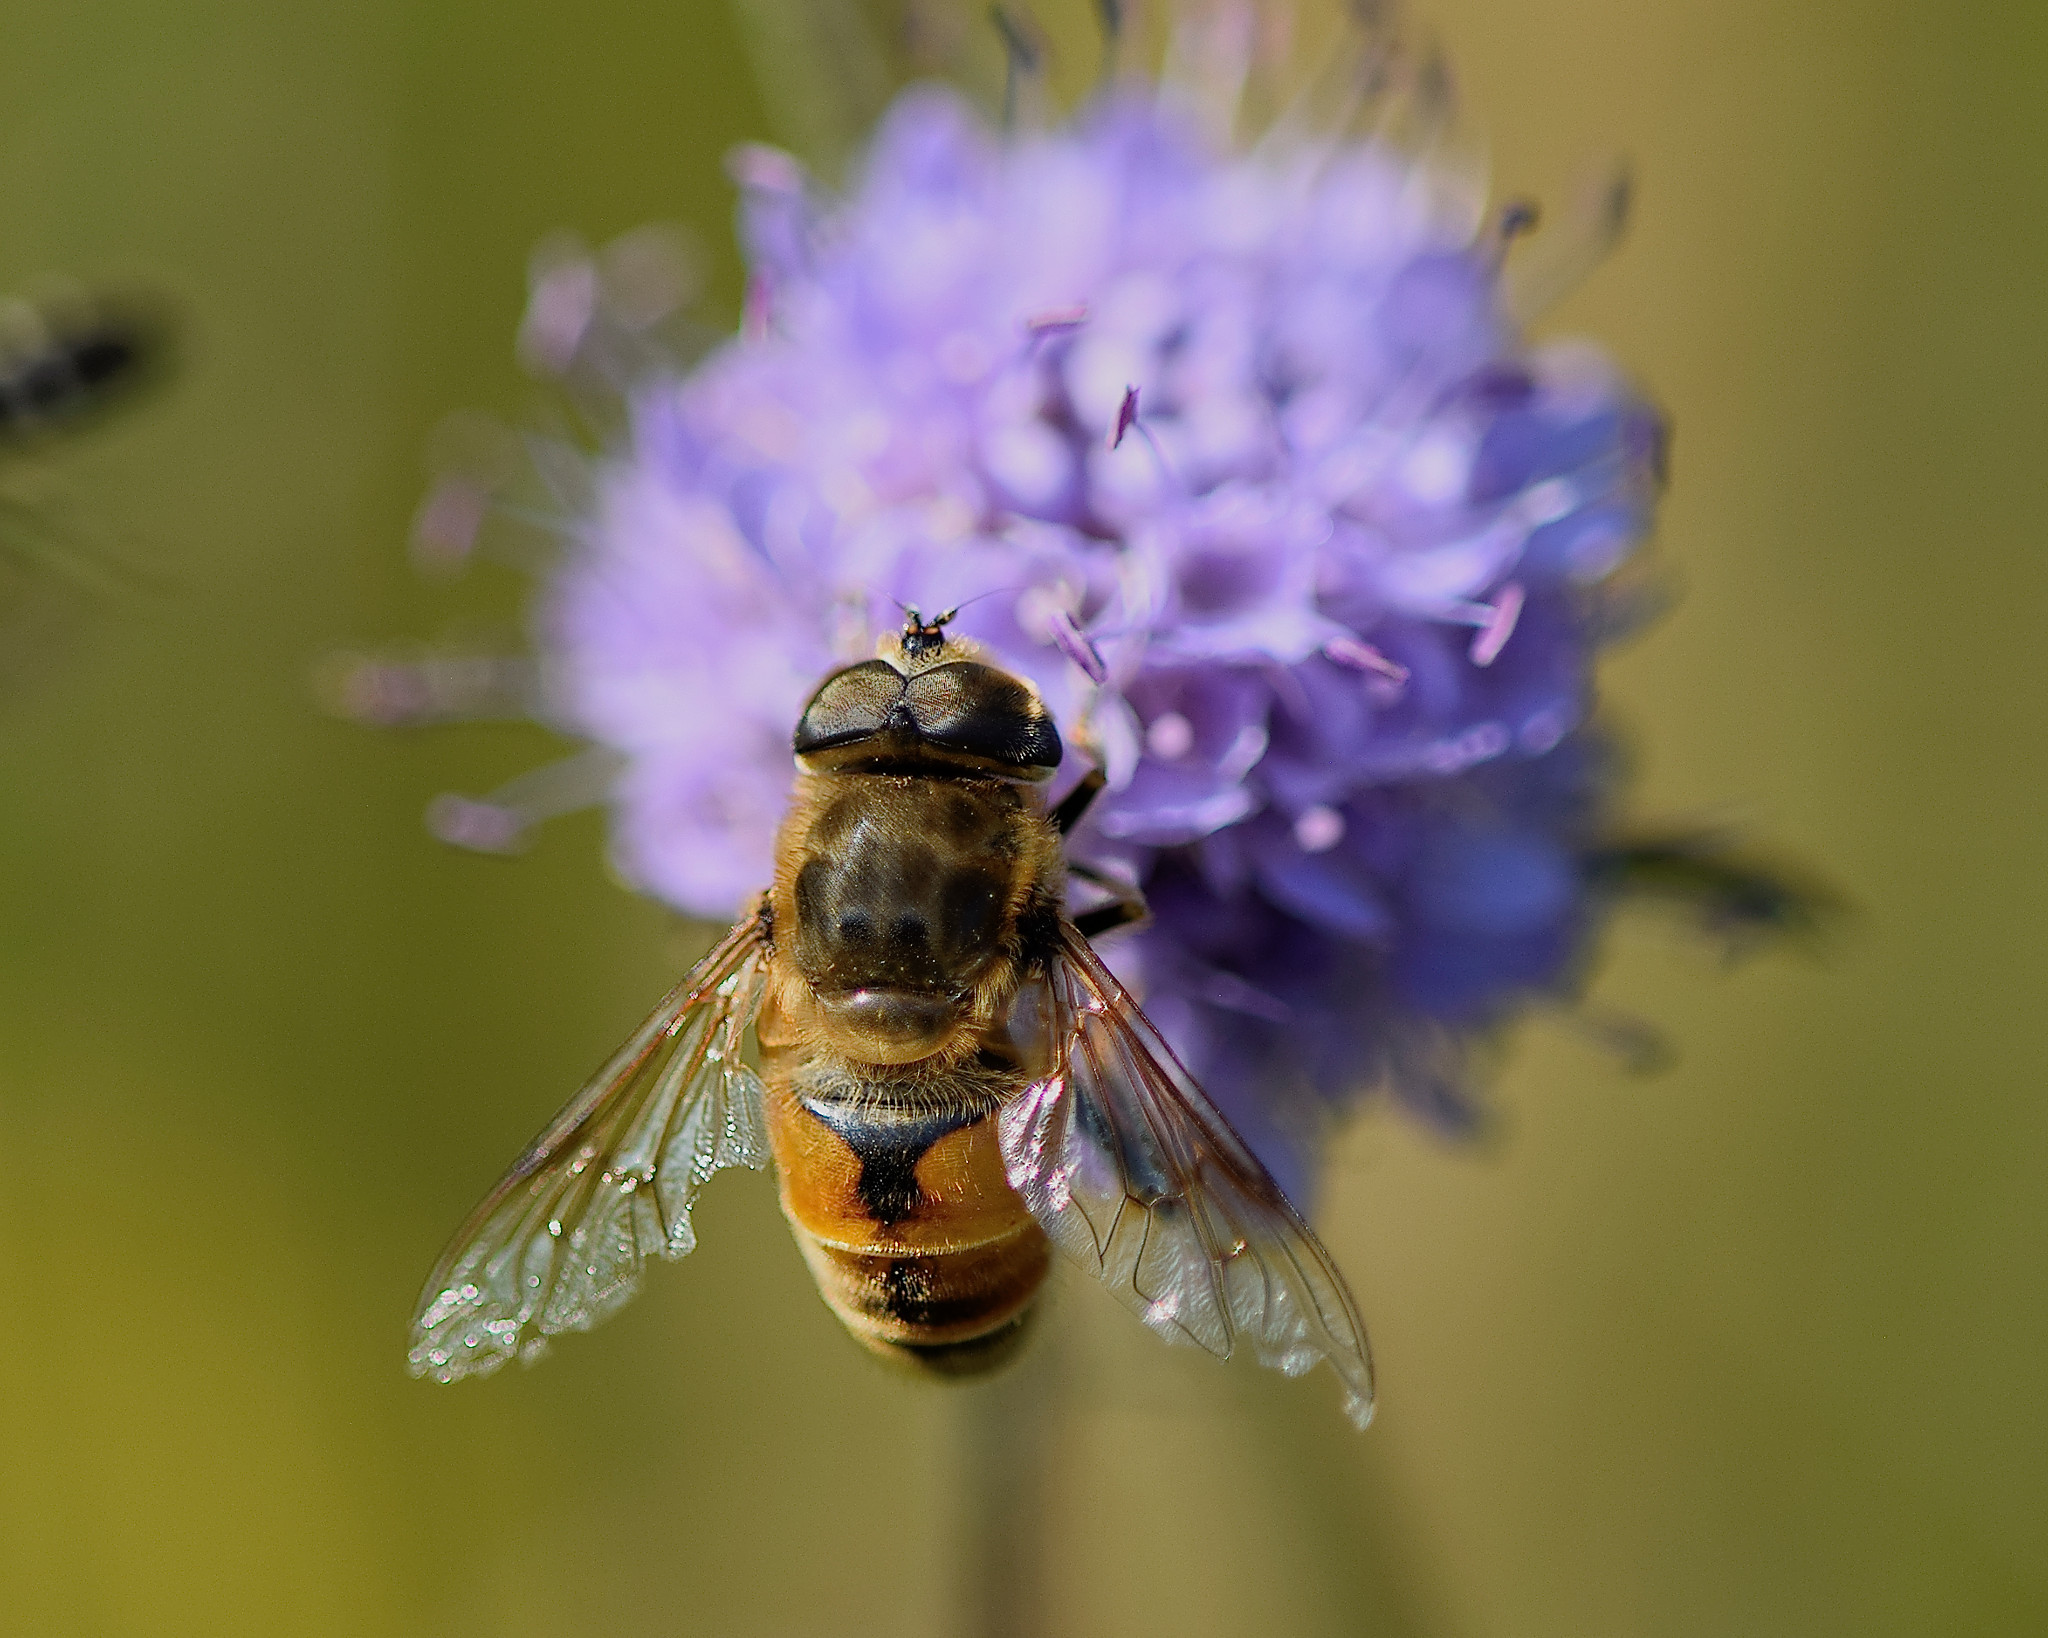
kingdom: Animalia
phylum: Arthropoda
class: Insecta
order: Diptera
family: Syrphidae
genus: Eristalis
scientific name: Eristalis tenax
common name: Drone fly
